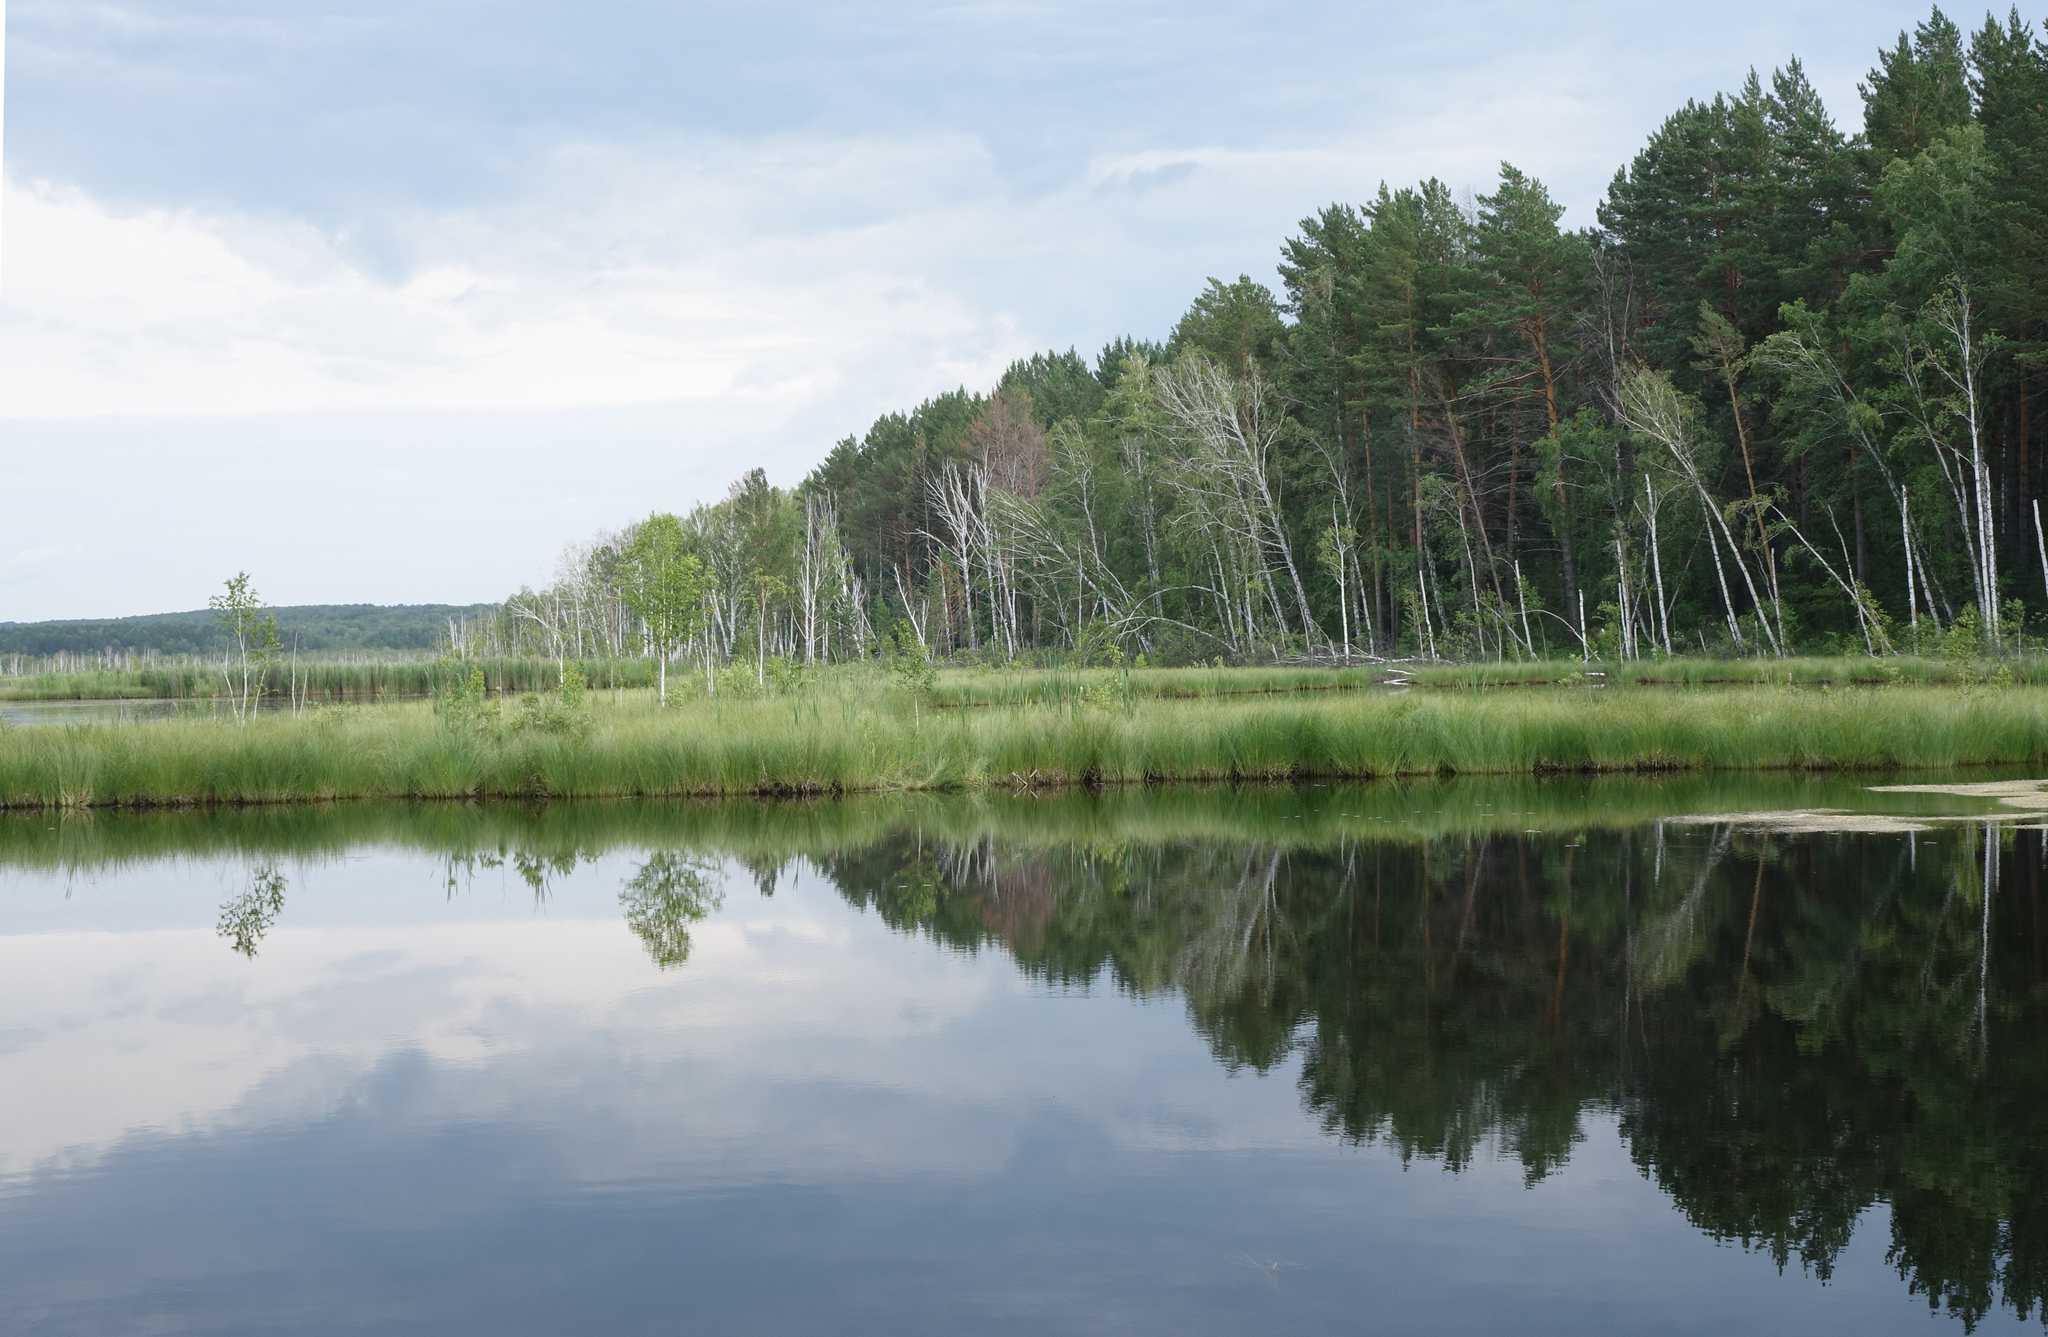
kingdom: Plantae
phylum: Tracheophyta
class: Pinopsida
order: Pinales
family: Pinaceae
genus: Pinus
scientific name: Pinus sylvestris
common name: Scots pine
